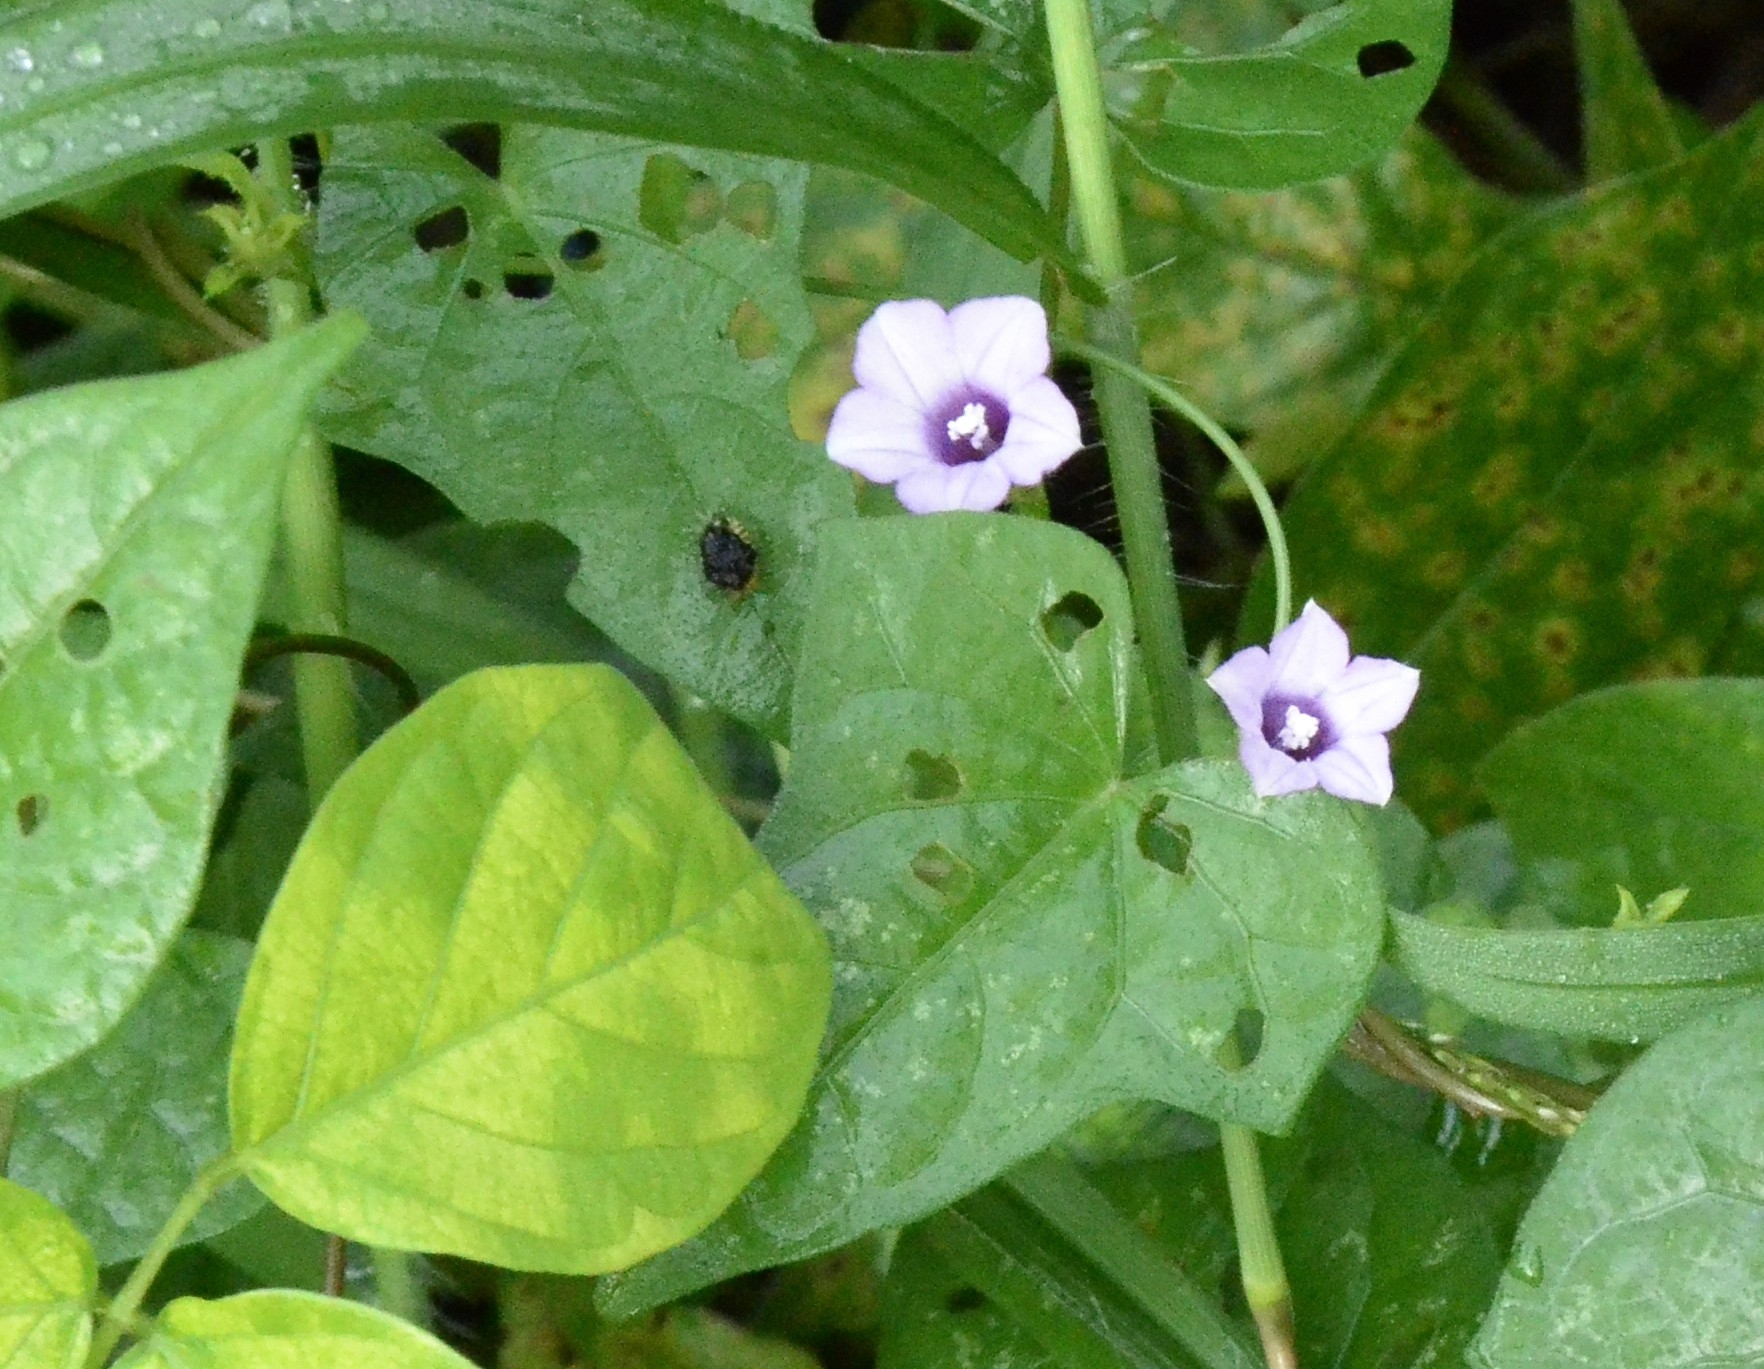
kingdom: Plantae
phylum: Tracheophyta
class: Magnoliopsida
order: Solanales
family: Convolvulaceae
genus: Ipomoea
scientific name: Ipomoea triloba
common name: Little-bell
